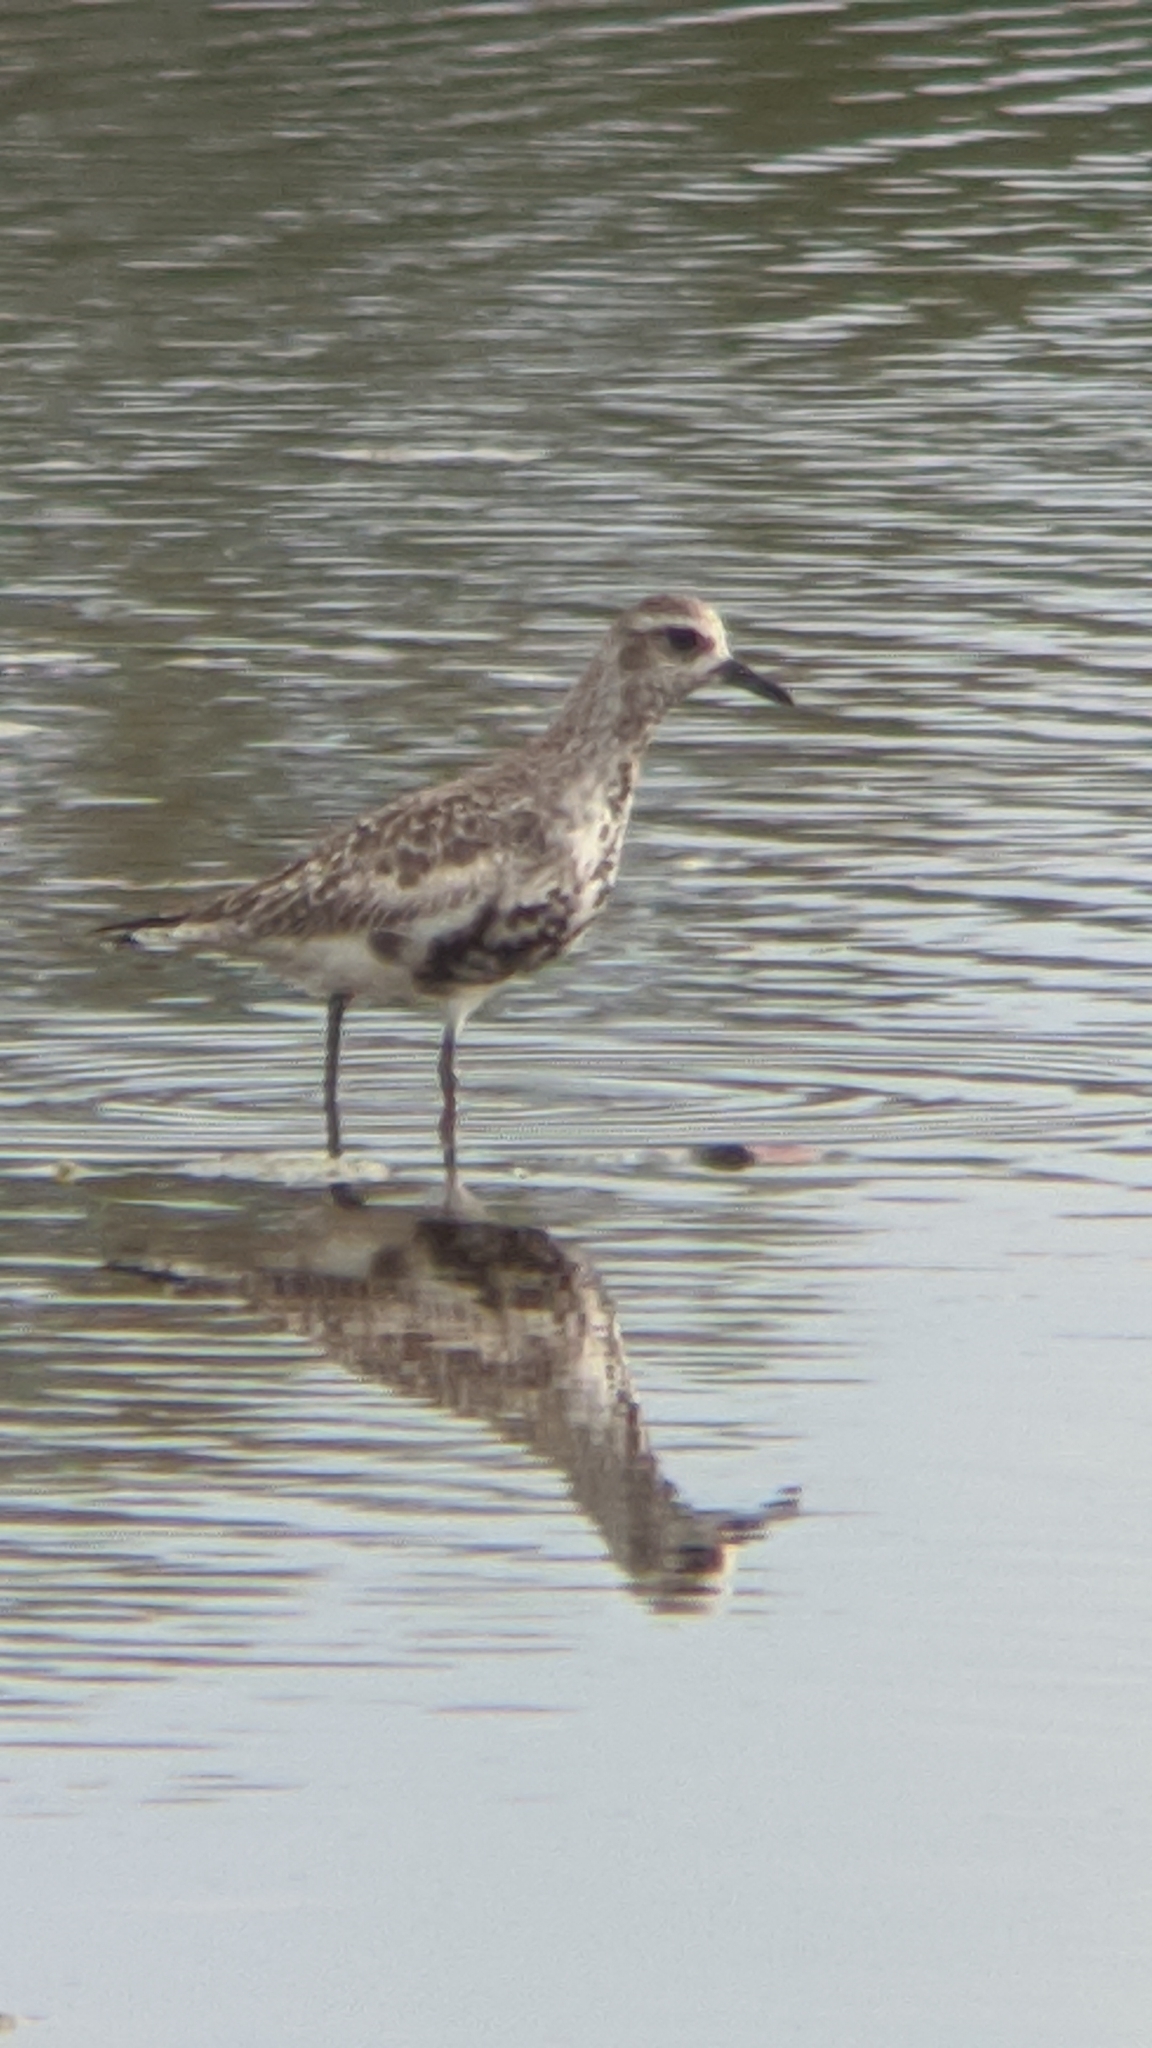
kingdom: Animalia
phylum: Chordata
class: Aves
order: Charadriiformes
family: Charadriidae
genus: Pluvialis
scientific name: Pluvialis squatarola
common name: Grey plover
